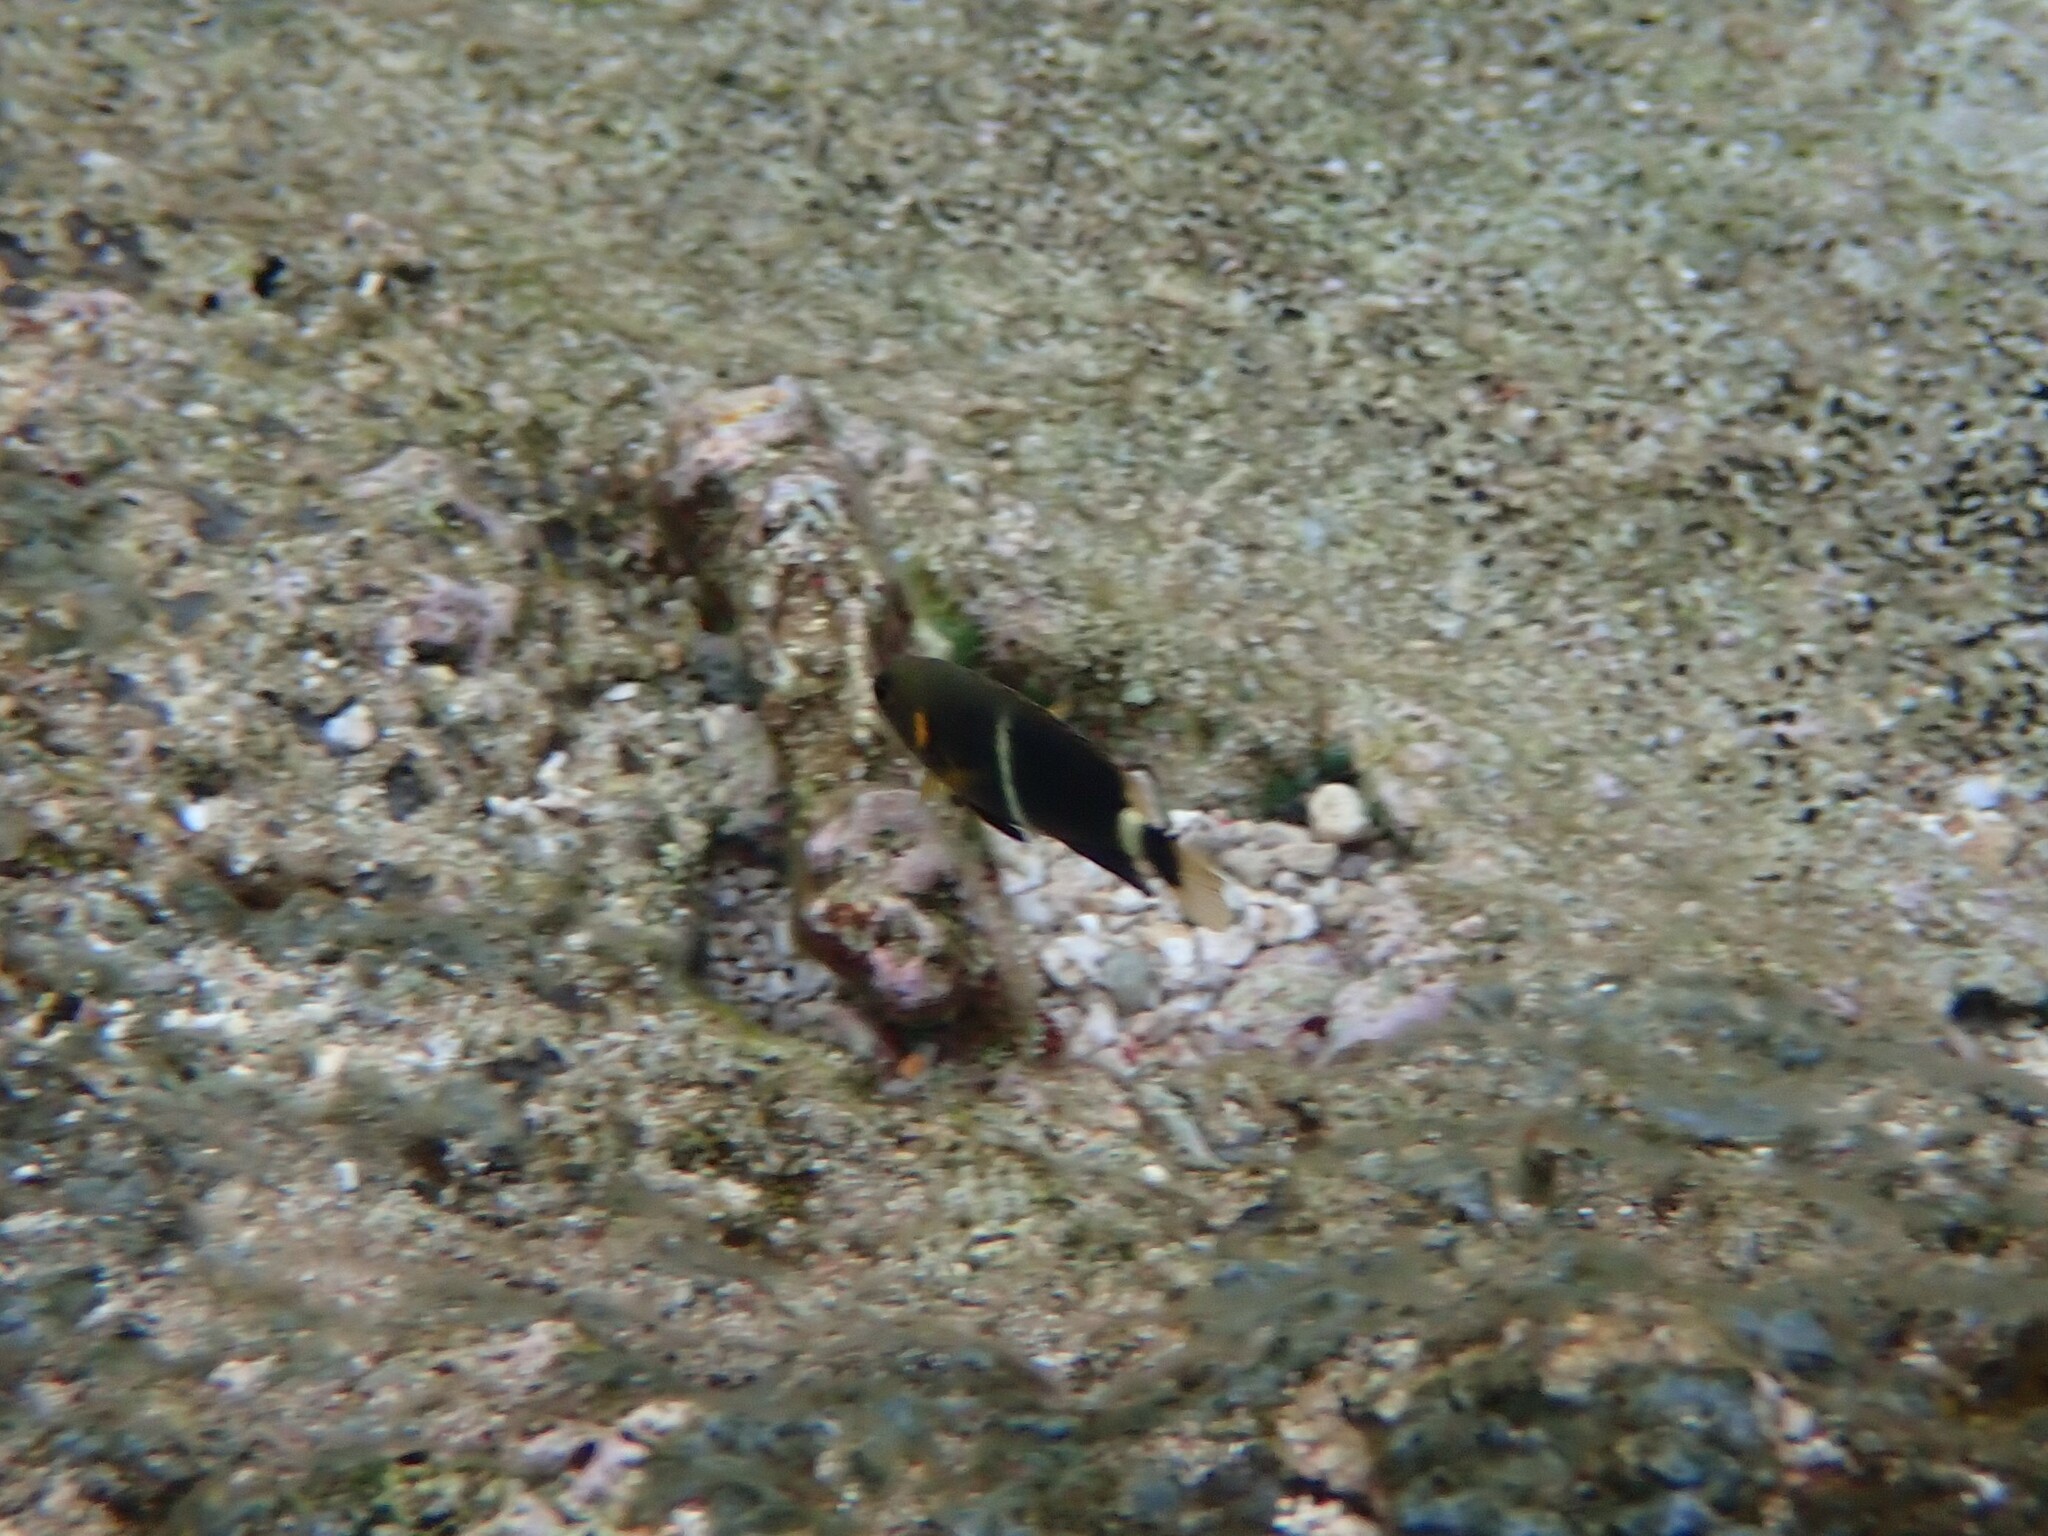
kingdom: Animalia
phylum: Chordata
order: Perciformes
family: Pomacentridae
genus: Chrysiptera
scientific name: Chrysiptera brownriggii
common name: Surge demoiselle
